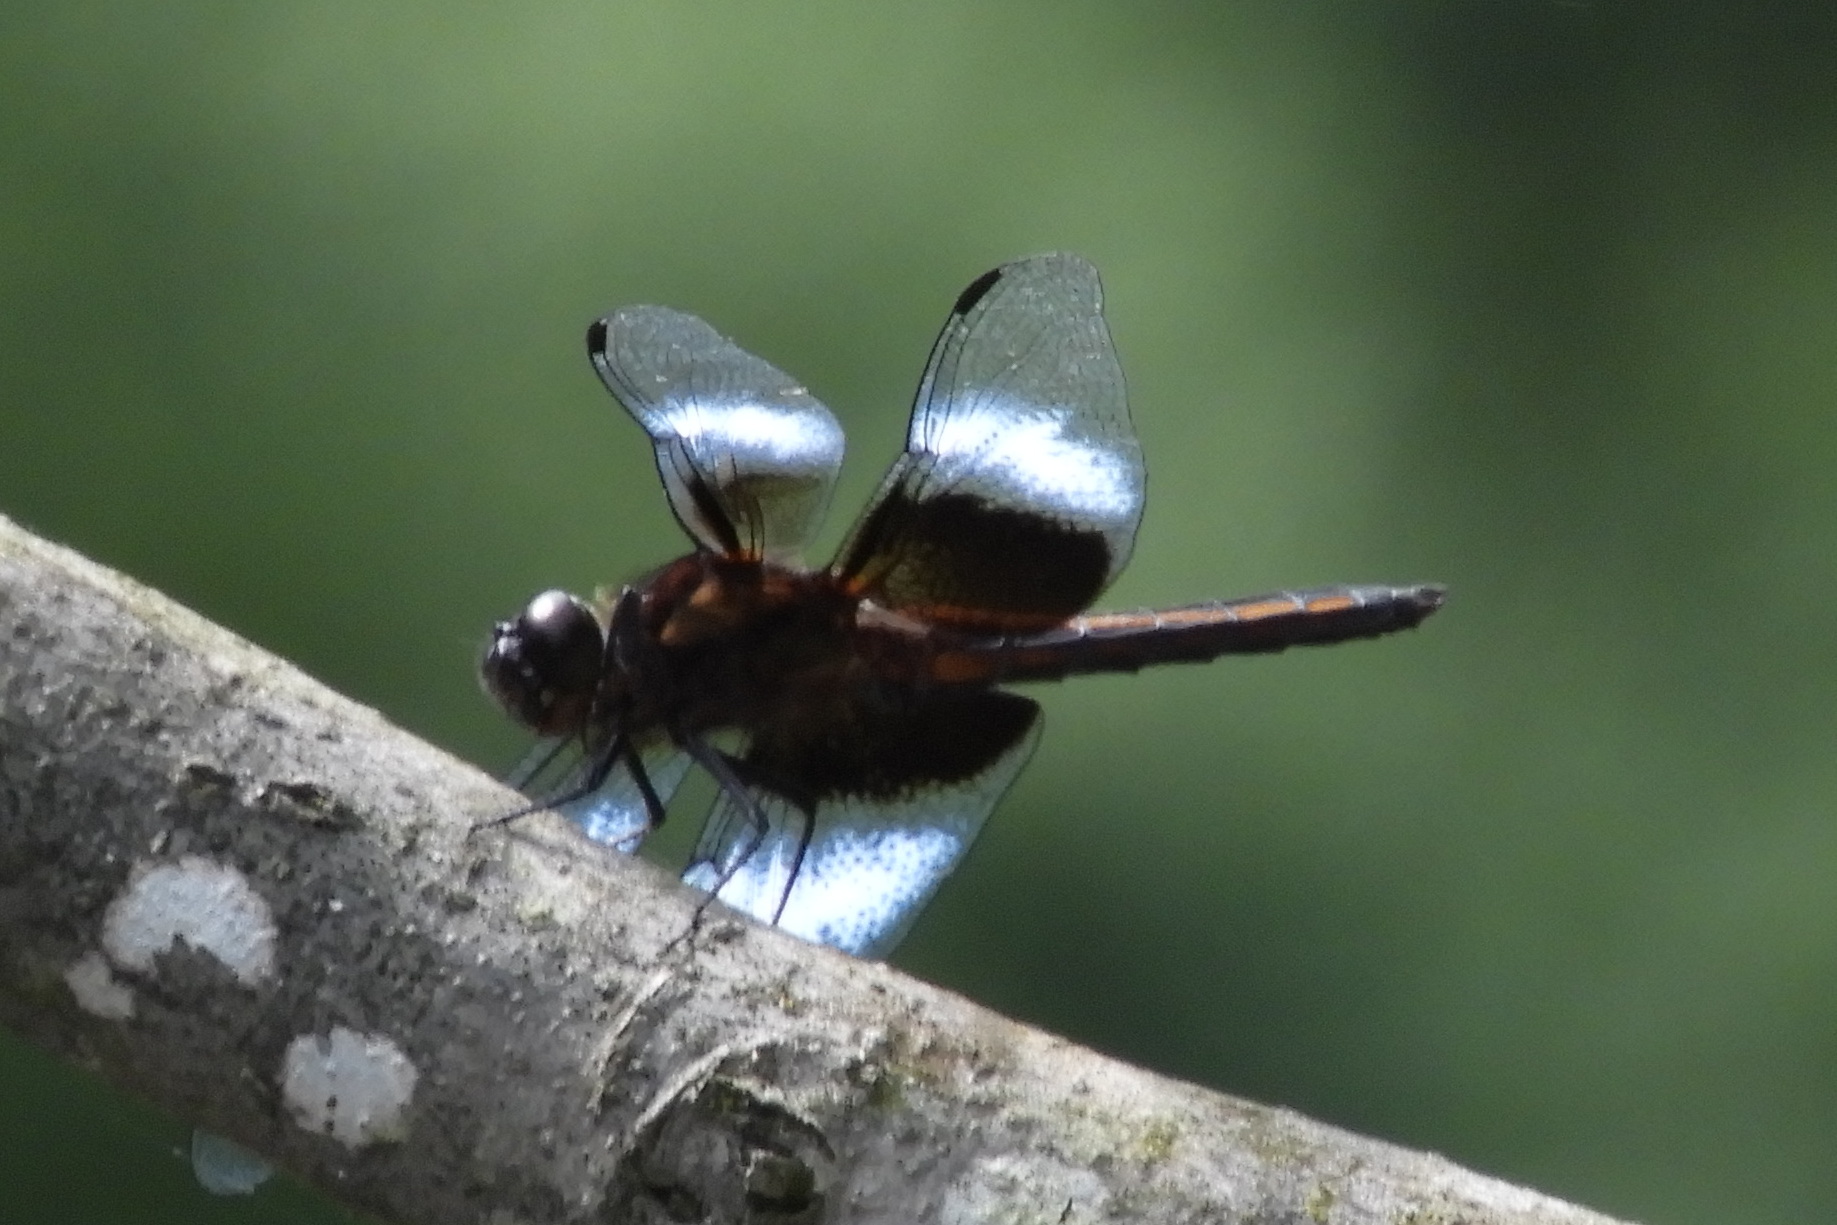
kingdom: Animalia
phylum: Arthropoda
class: Insecta
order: Odonata
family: Libellulidae
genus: Libellula
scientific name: Libellula luctuosa
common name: Widow skimmer
